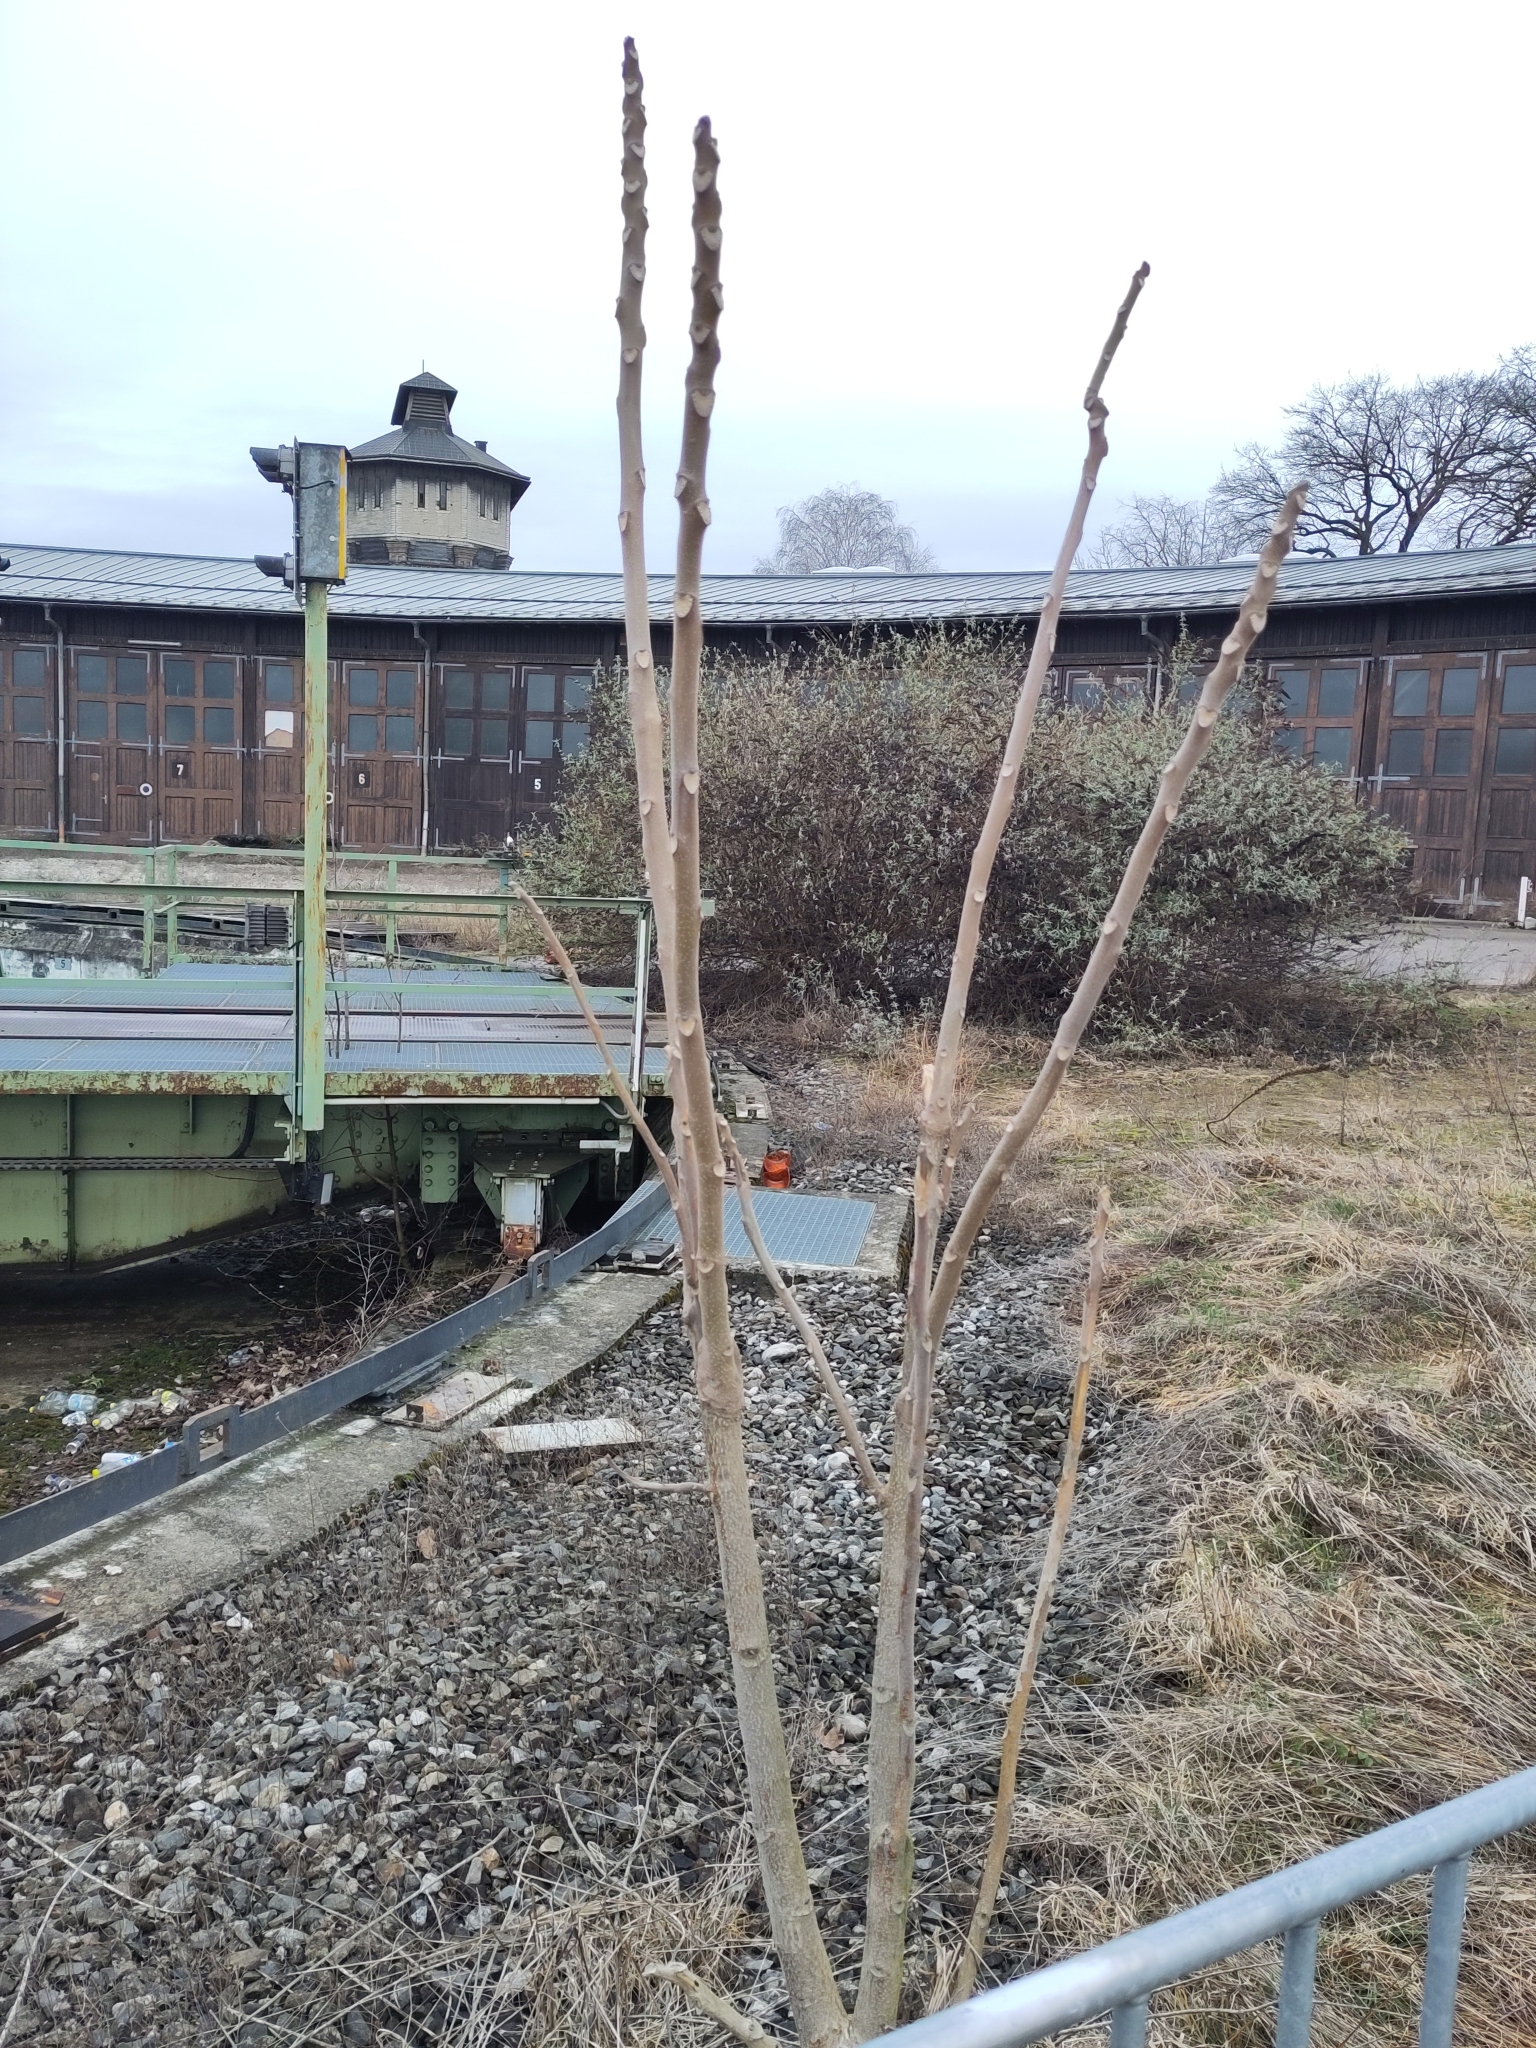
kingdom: Plantae
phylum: Tracheophyta
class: Magnoliopsida
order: Sapindales
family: Simaroubaceae
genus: Ailanthus
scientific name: Ailanthus altissima
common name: Tree-of-heaven
